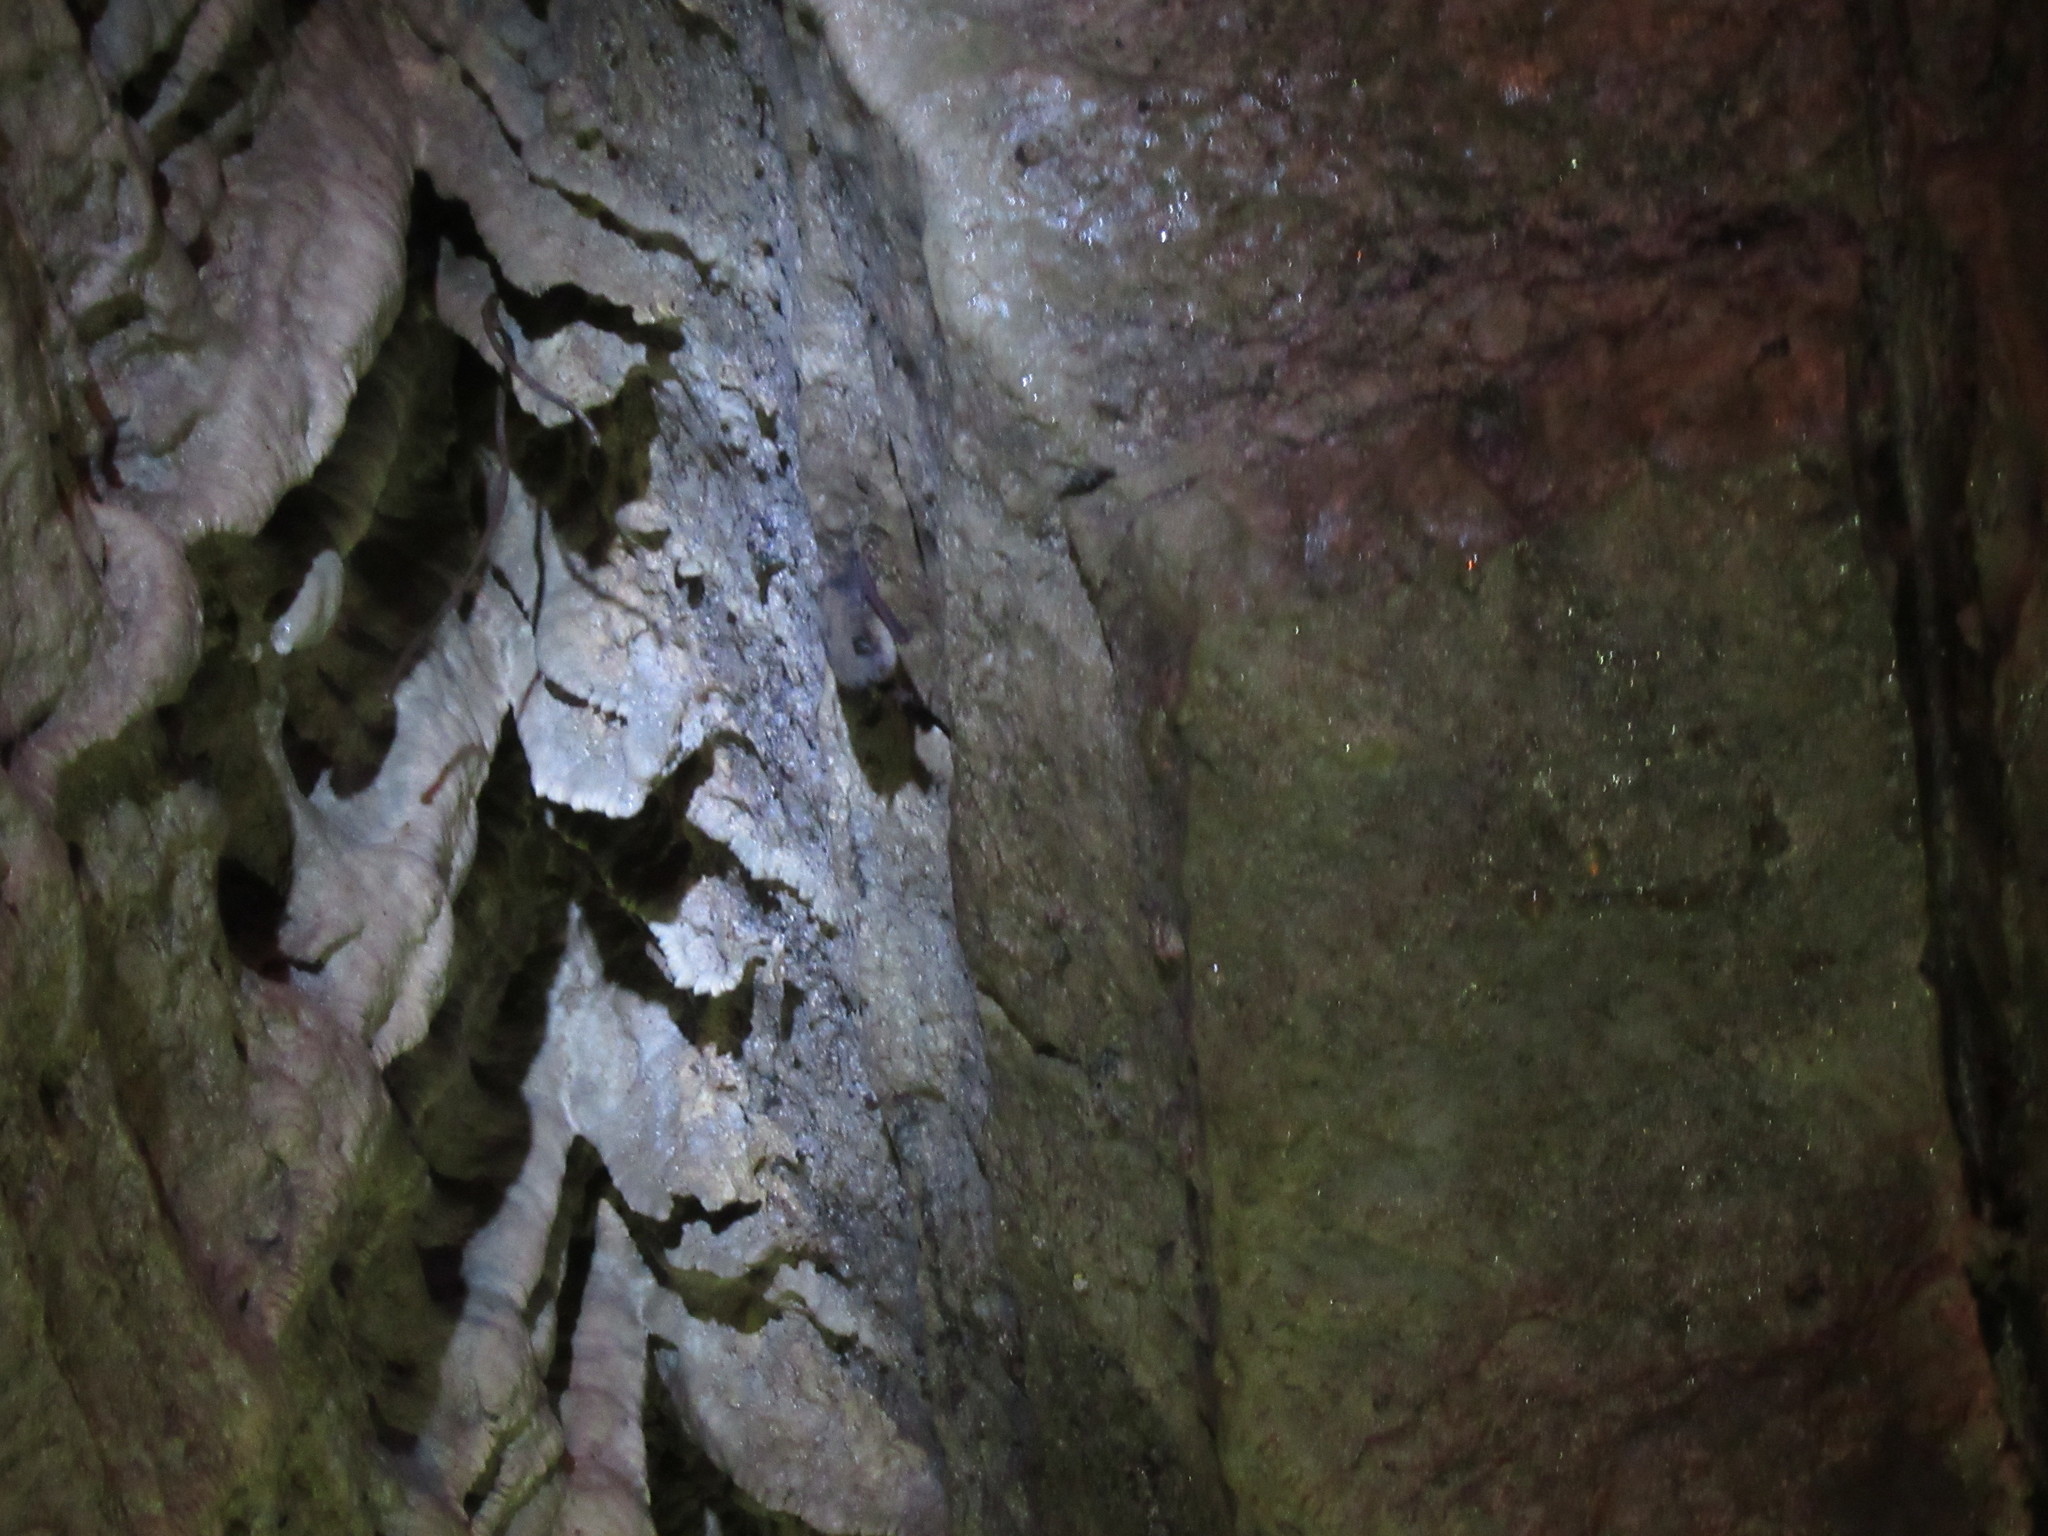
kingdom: Animalia
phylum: Chordata
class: Mammalia
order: Chiroptera
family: Vespertilionidae
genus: Myotis
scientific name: Myotis lucifugus
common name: Little brown bat
